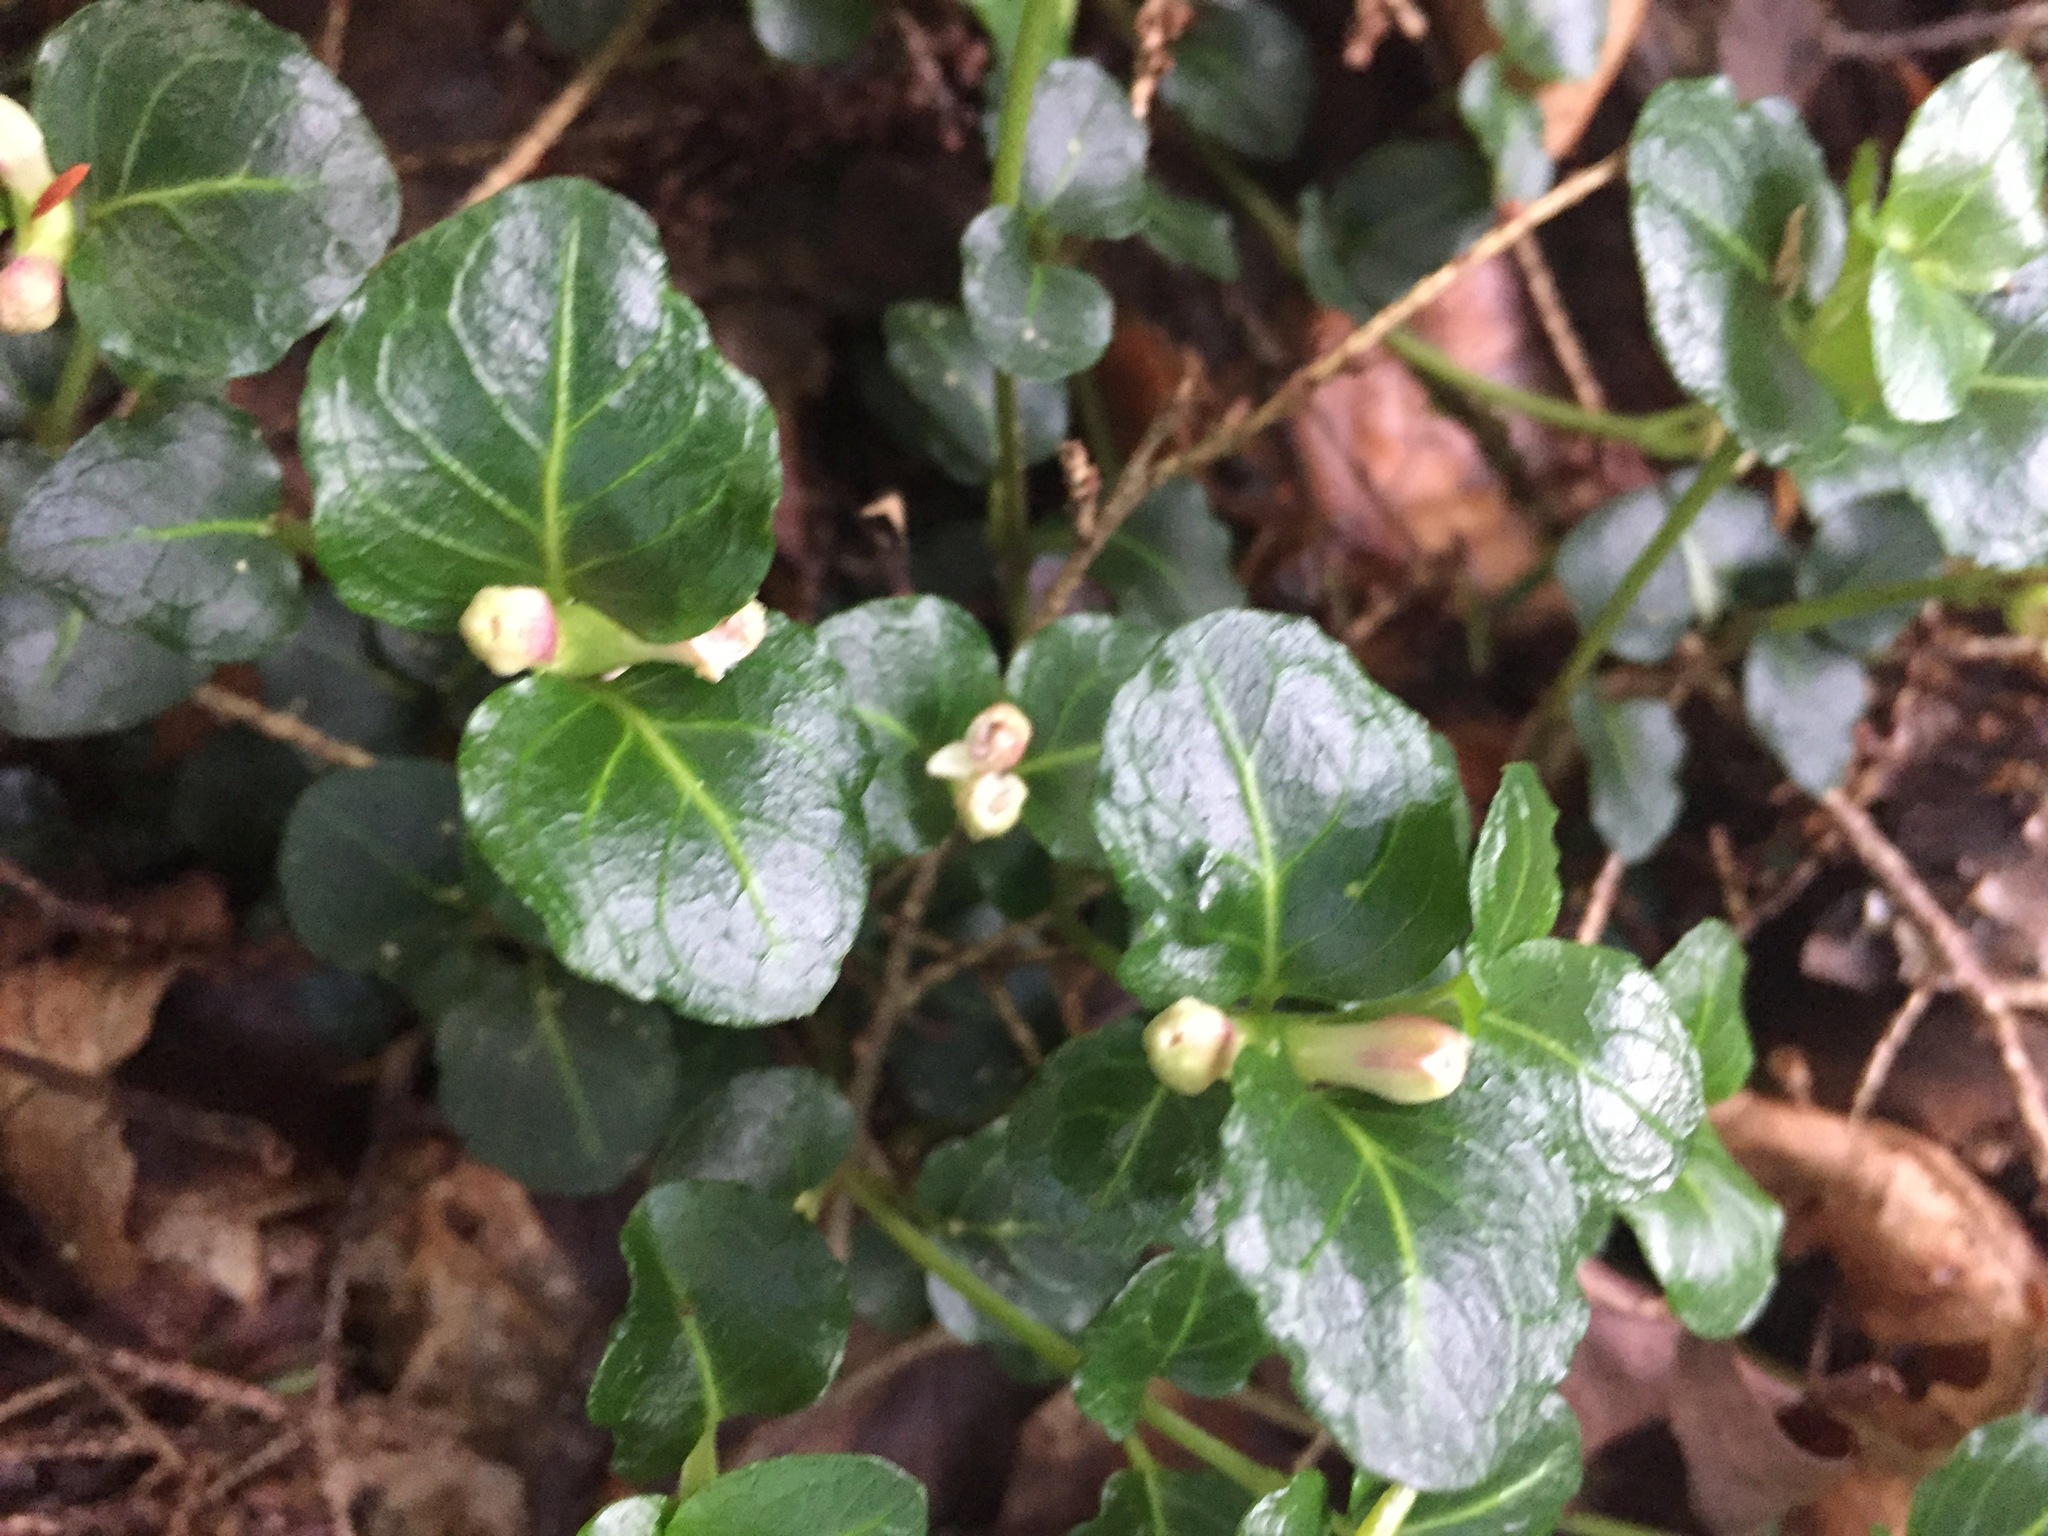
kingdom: Plantae
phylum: Tracheophyta
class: Magnoliopsida
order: Gentianales
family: Rubiaceae
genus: Mitchella
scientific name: Mitchella repens
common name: Partridge-berry
